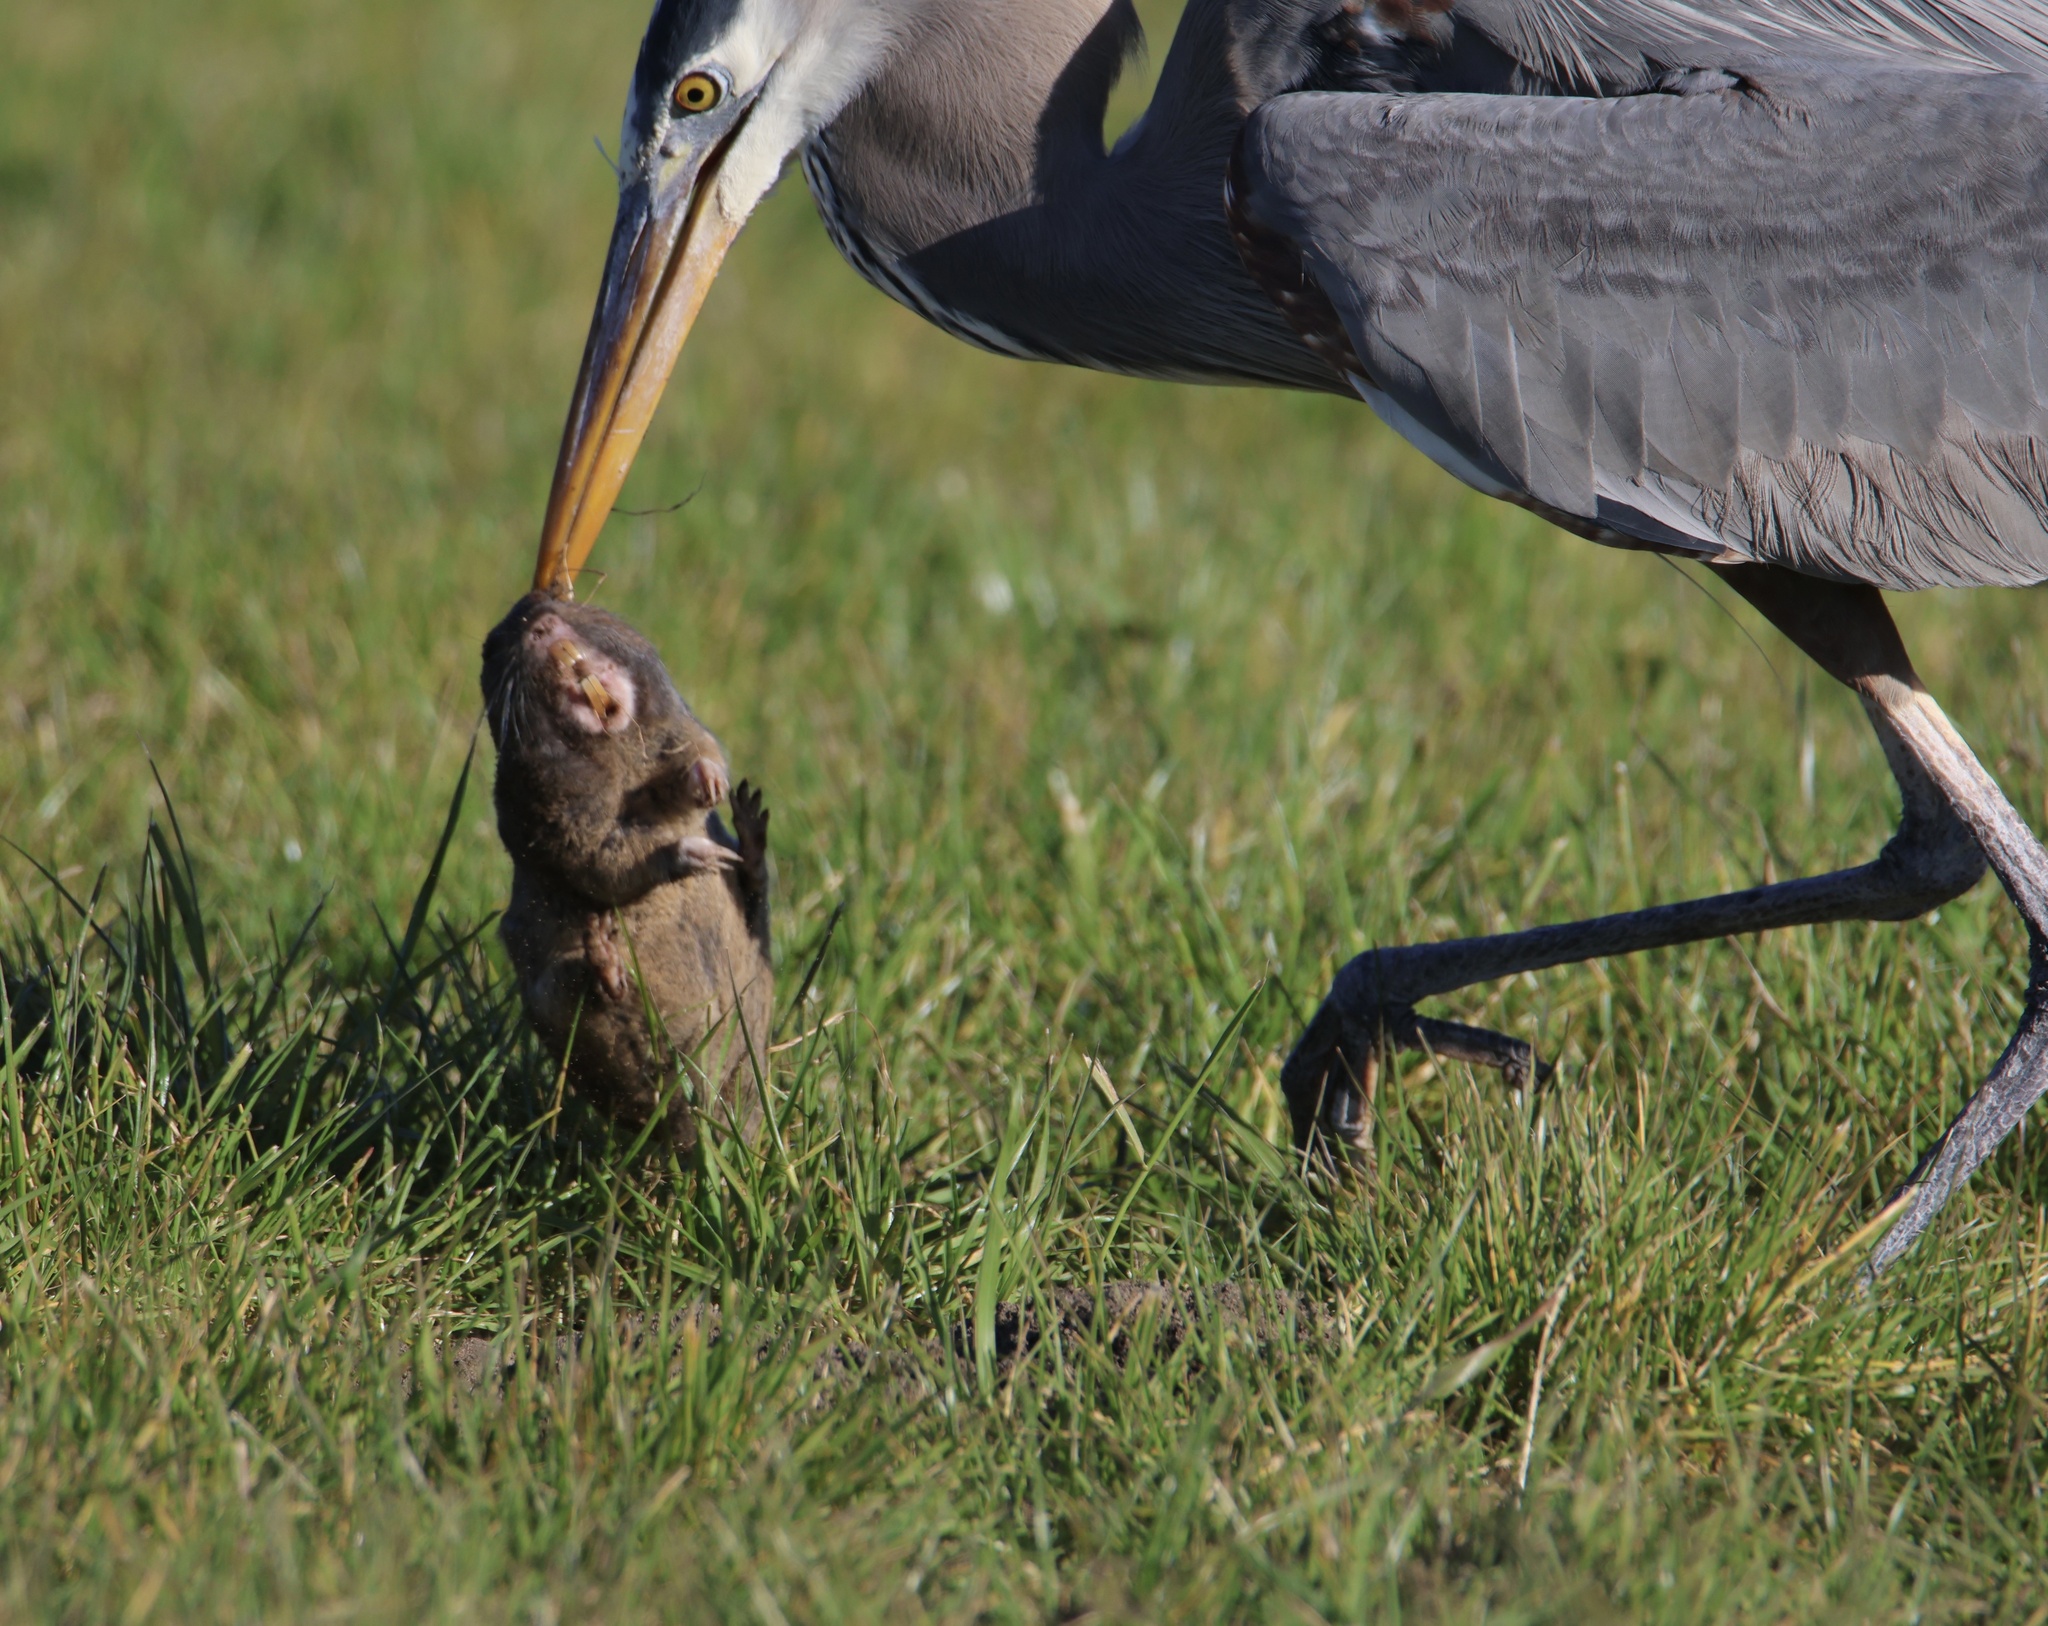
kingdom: Animalia
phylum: Chordata
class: Mammalia
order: Rodentia
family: Geomyidae
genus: Thomomys
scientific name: Thomomys bottae
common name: Botta's pocket gopher
